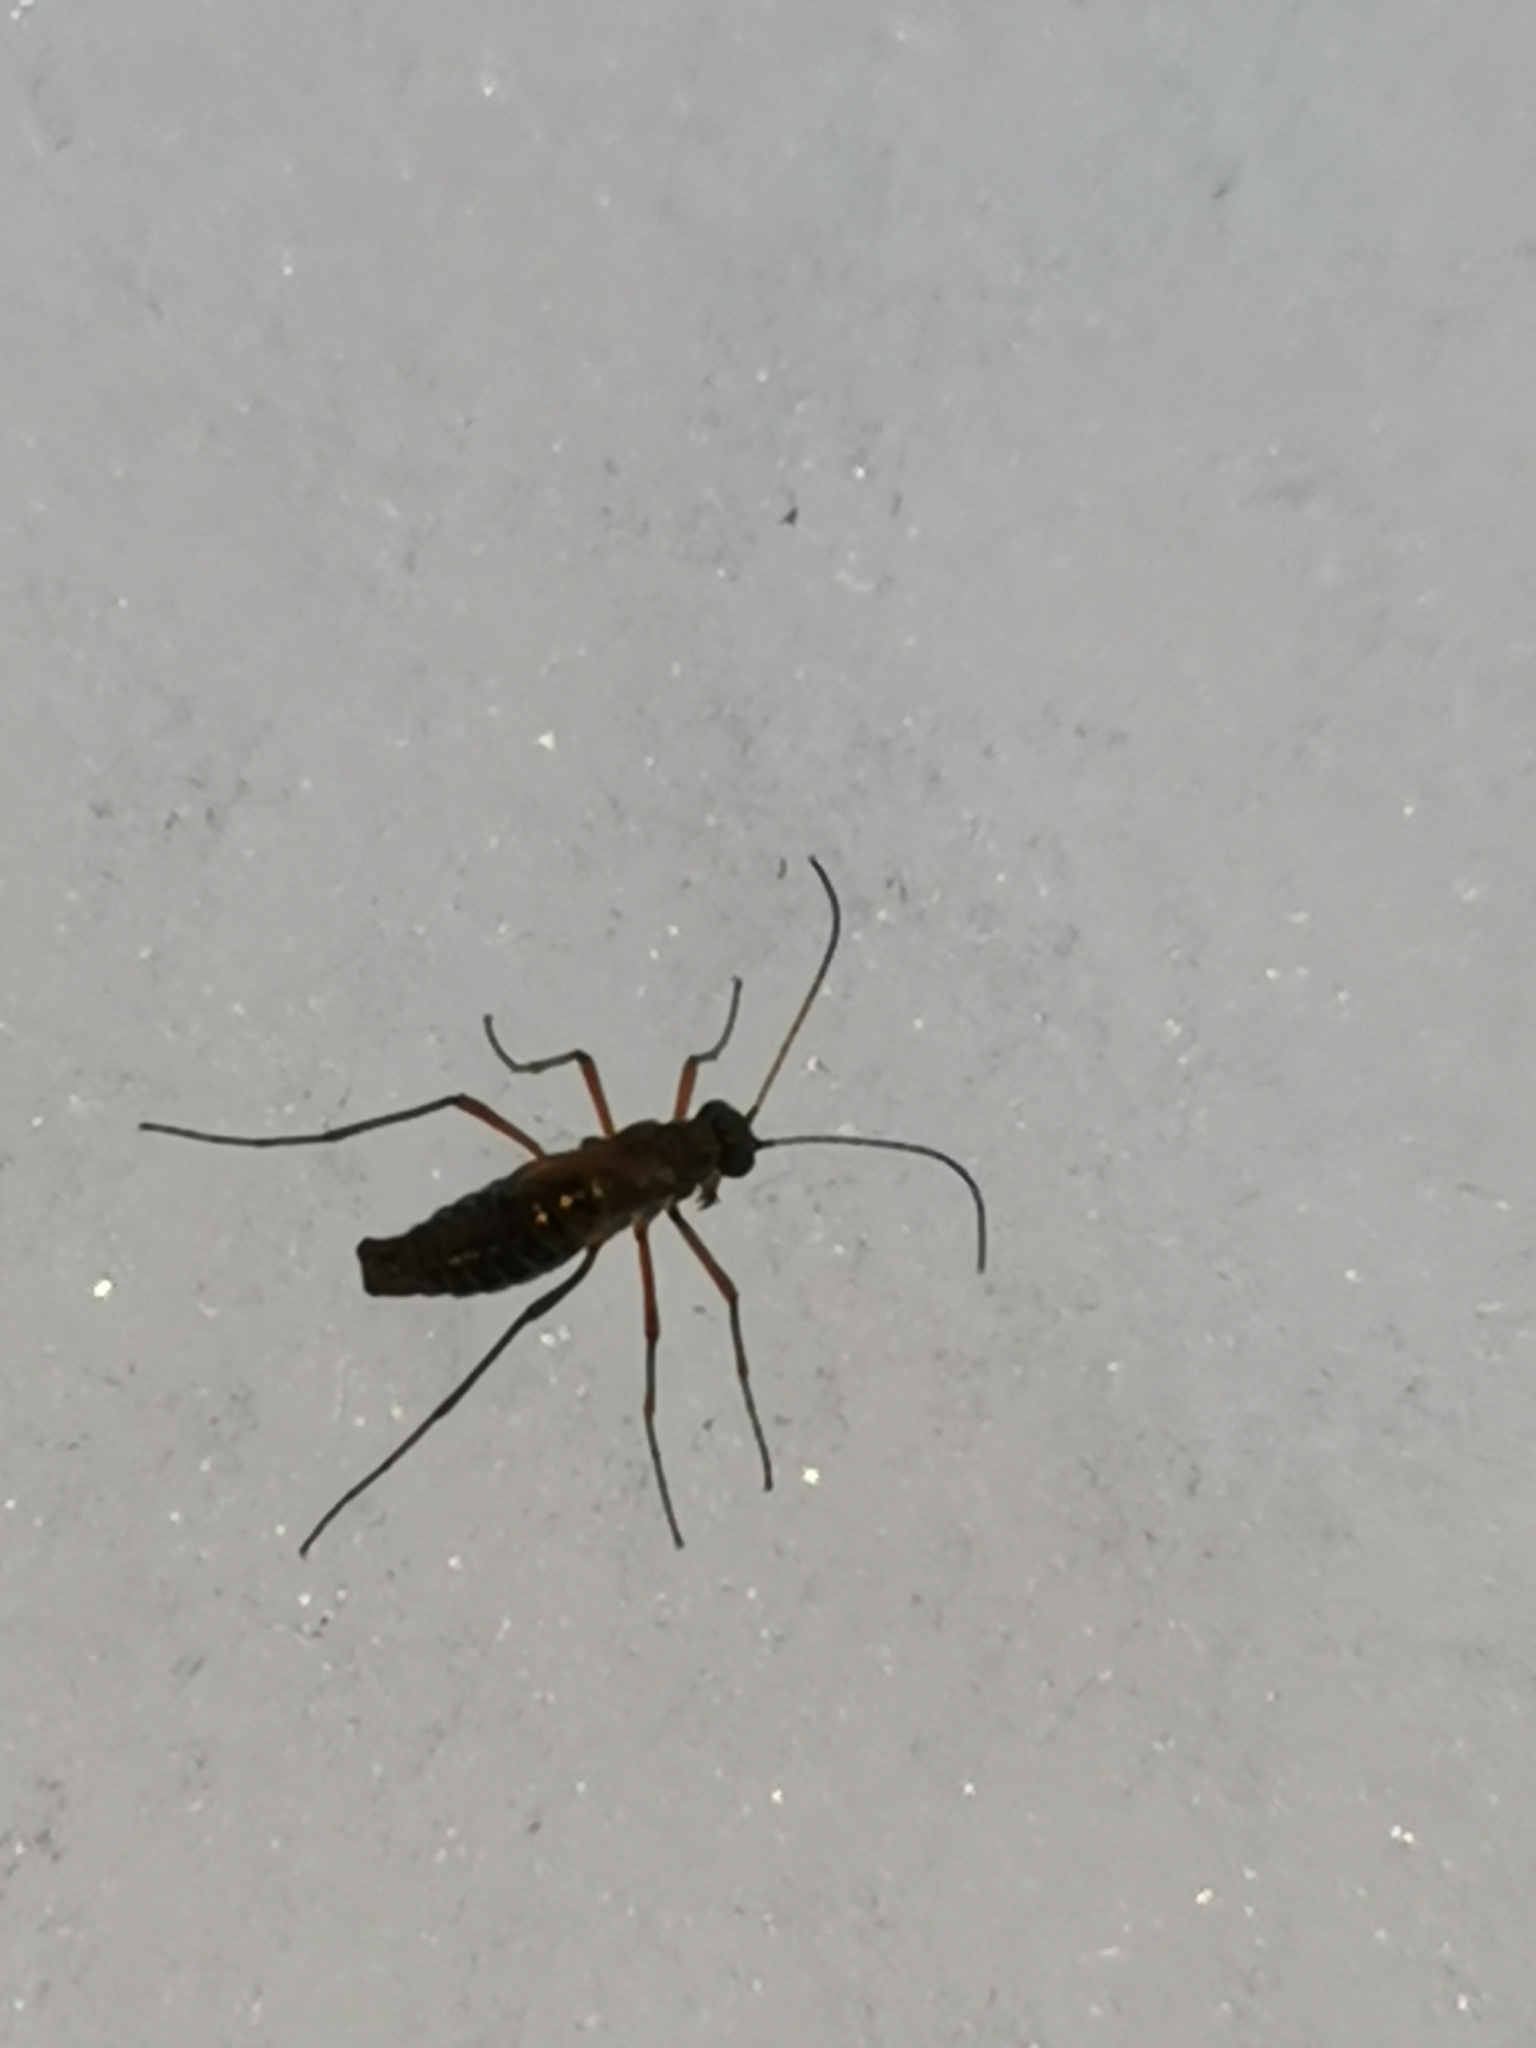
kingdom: Animalia
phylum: Arthropoda
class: Insecta
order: Mecoptera
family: Boreidae
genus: Boreus
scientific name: Boreus westwoodi
